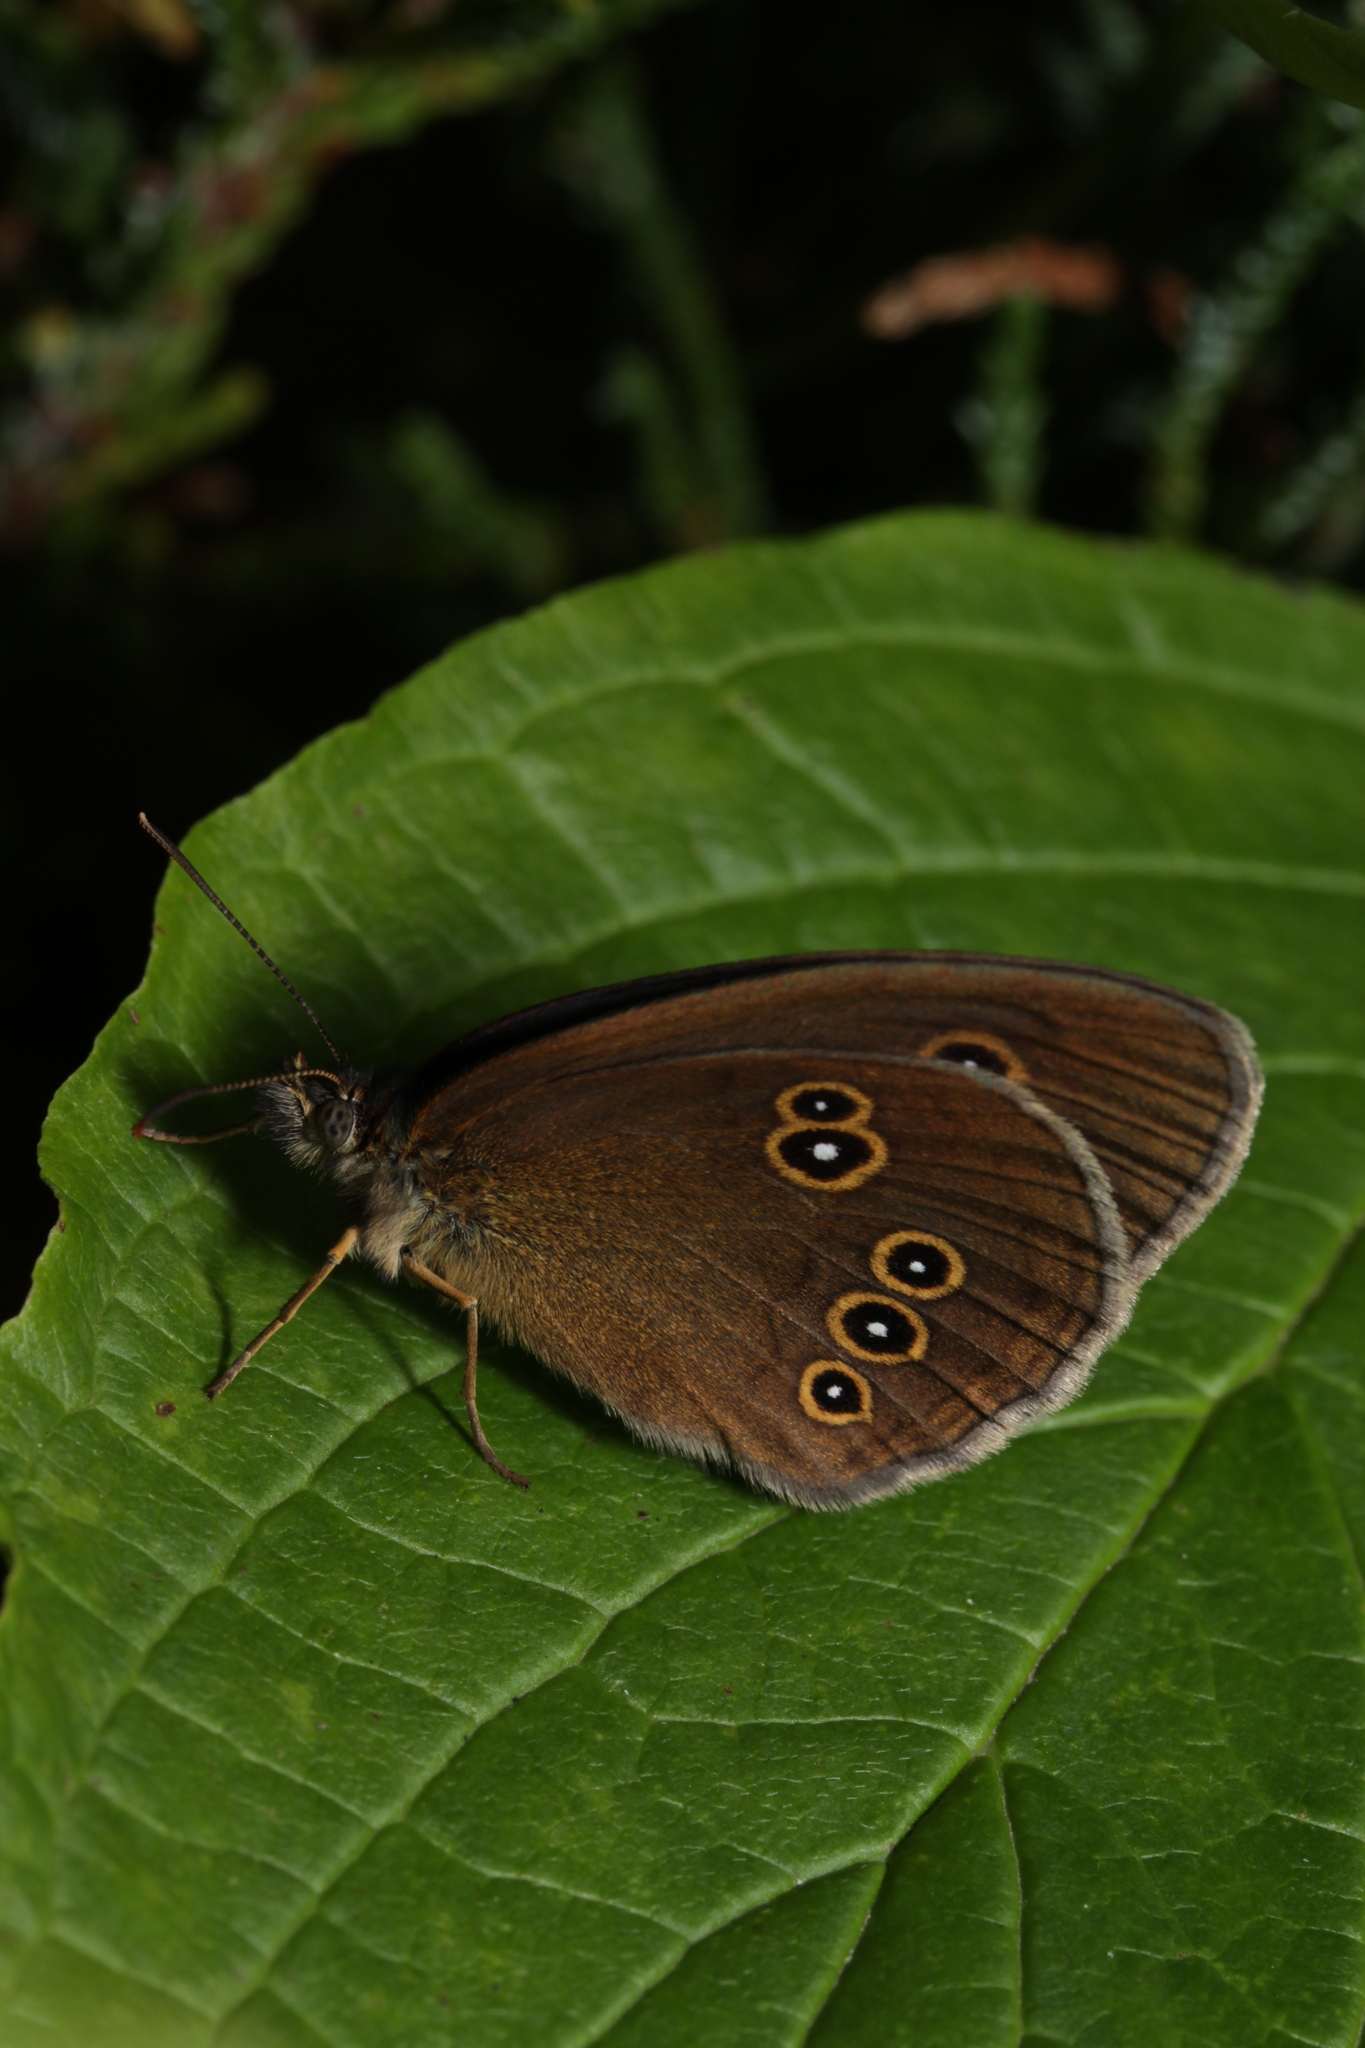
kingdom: Animalia
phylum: Arthropoda
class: Insecta
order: Lepidoptera
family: Nymphalidae
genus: Aphantopus
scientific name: Aphantopus hyperantus
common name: Ringlet
